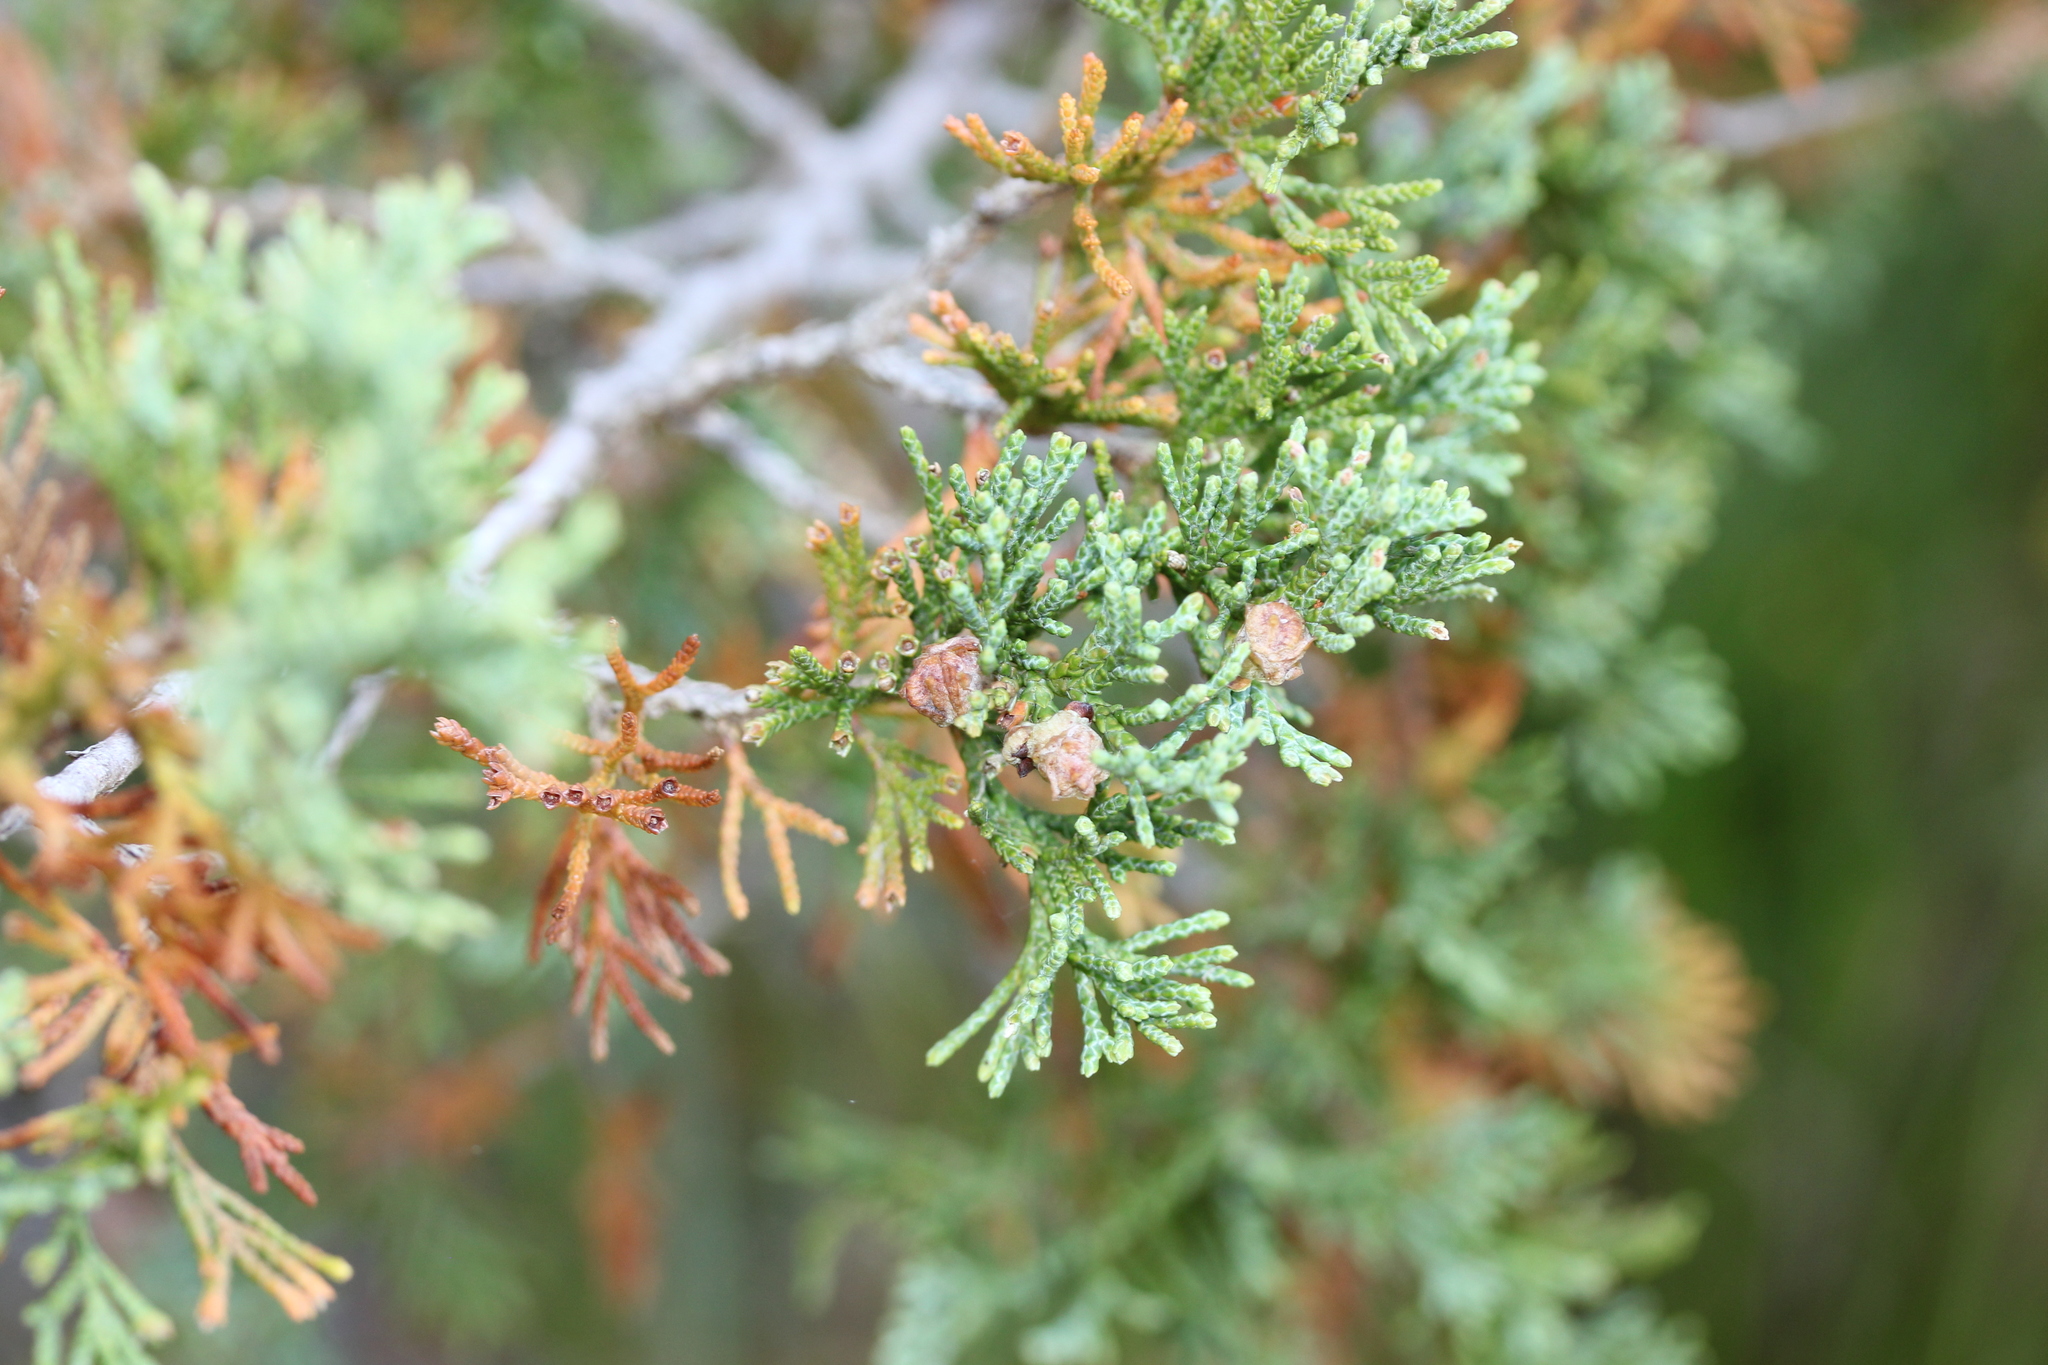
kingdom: Plantae
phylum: Tracheophyta
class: Pinopsida
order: Pinales
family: Cupressaceae
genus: Chamaecyparis
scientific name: Chamaecyparis thyoides
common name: Atlantic white cedar
